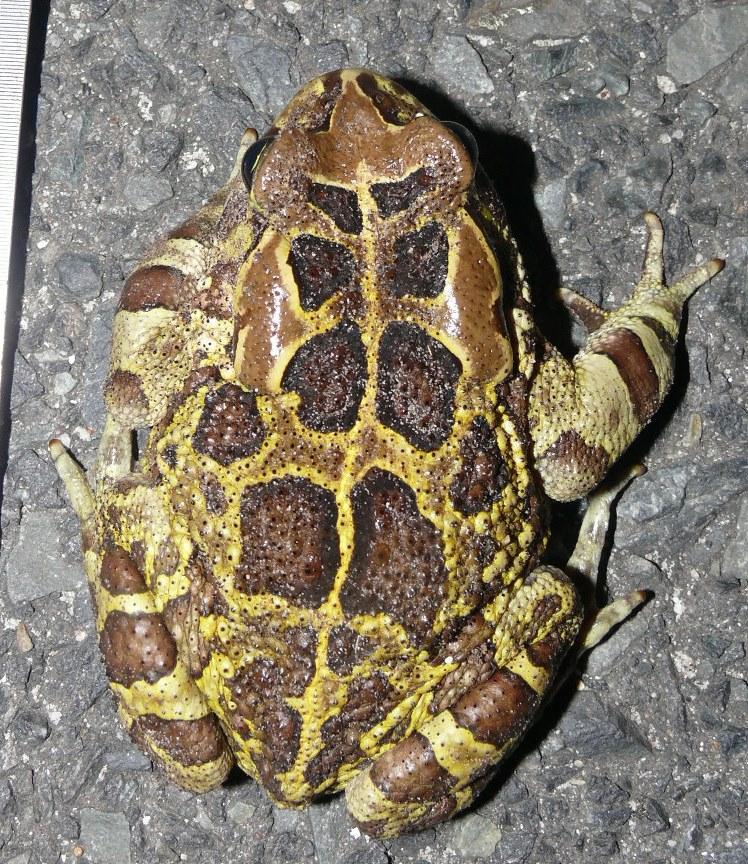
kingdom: Animalia
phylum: Chordata
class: Amphibia
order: Anura
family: Bufonidae
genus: Sclerophrys
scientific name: Sclerophrys pantherina
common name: Panther toad
